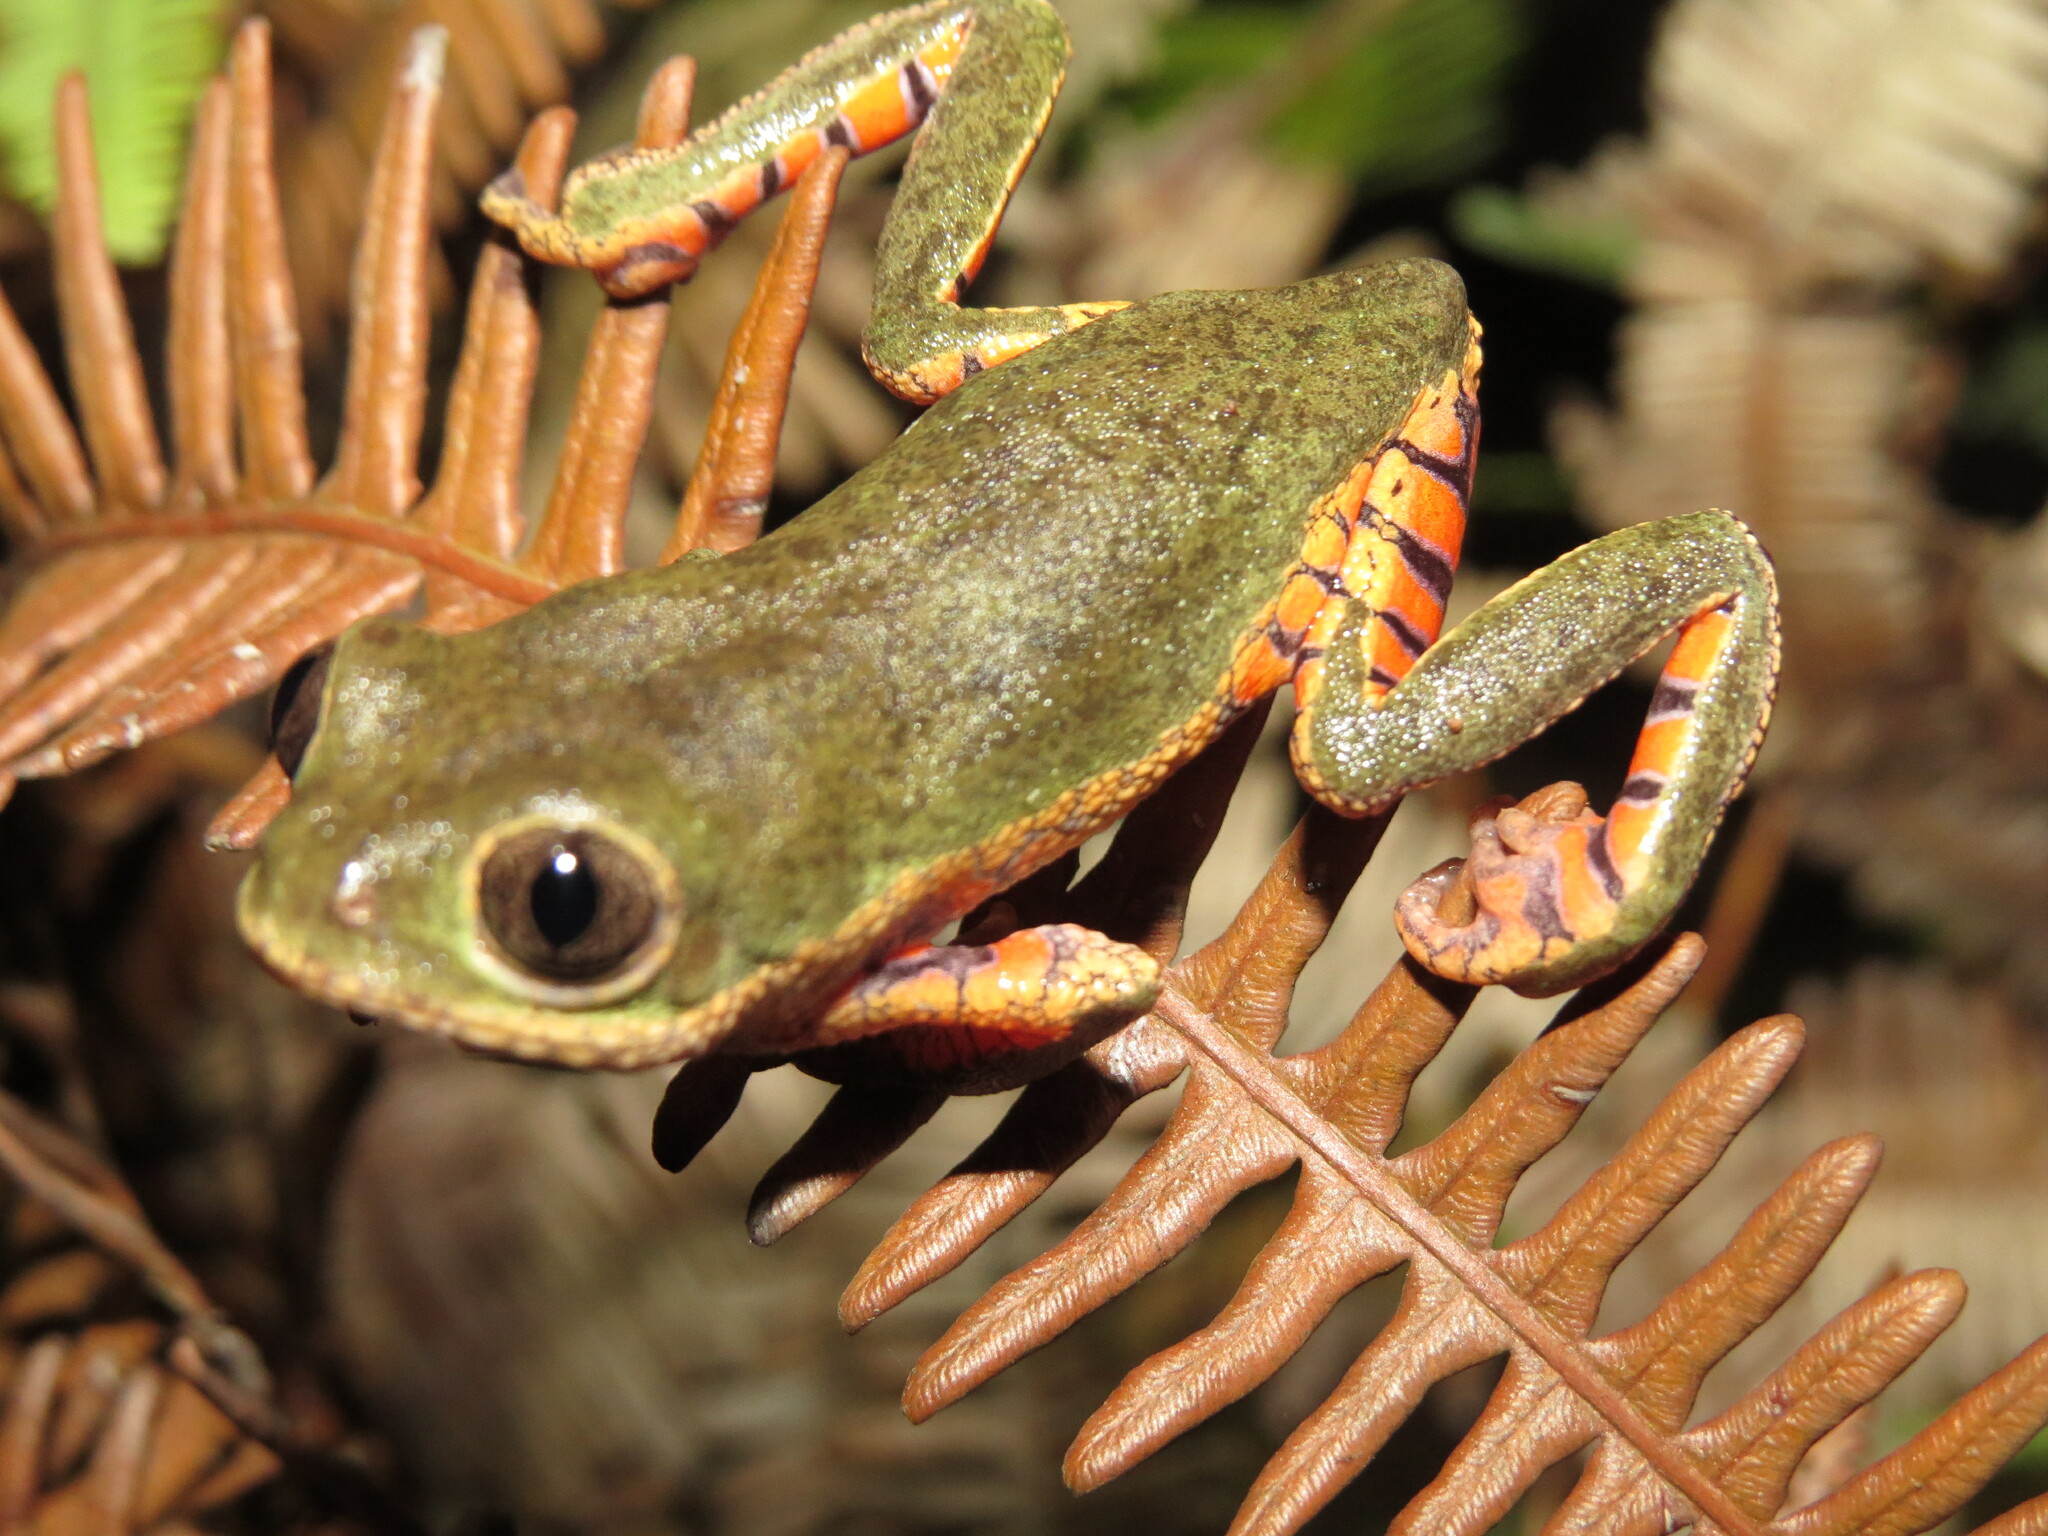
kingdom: Animalia
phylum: Chordata
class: Amphibia
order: Anura
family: Phyllomedusidae
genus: Pithecopus
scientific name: Pithecopus oreades
